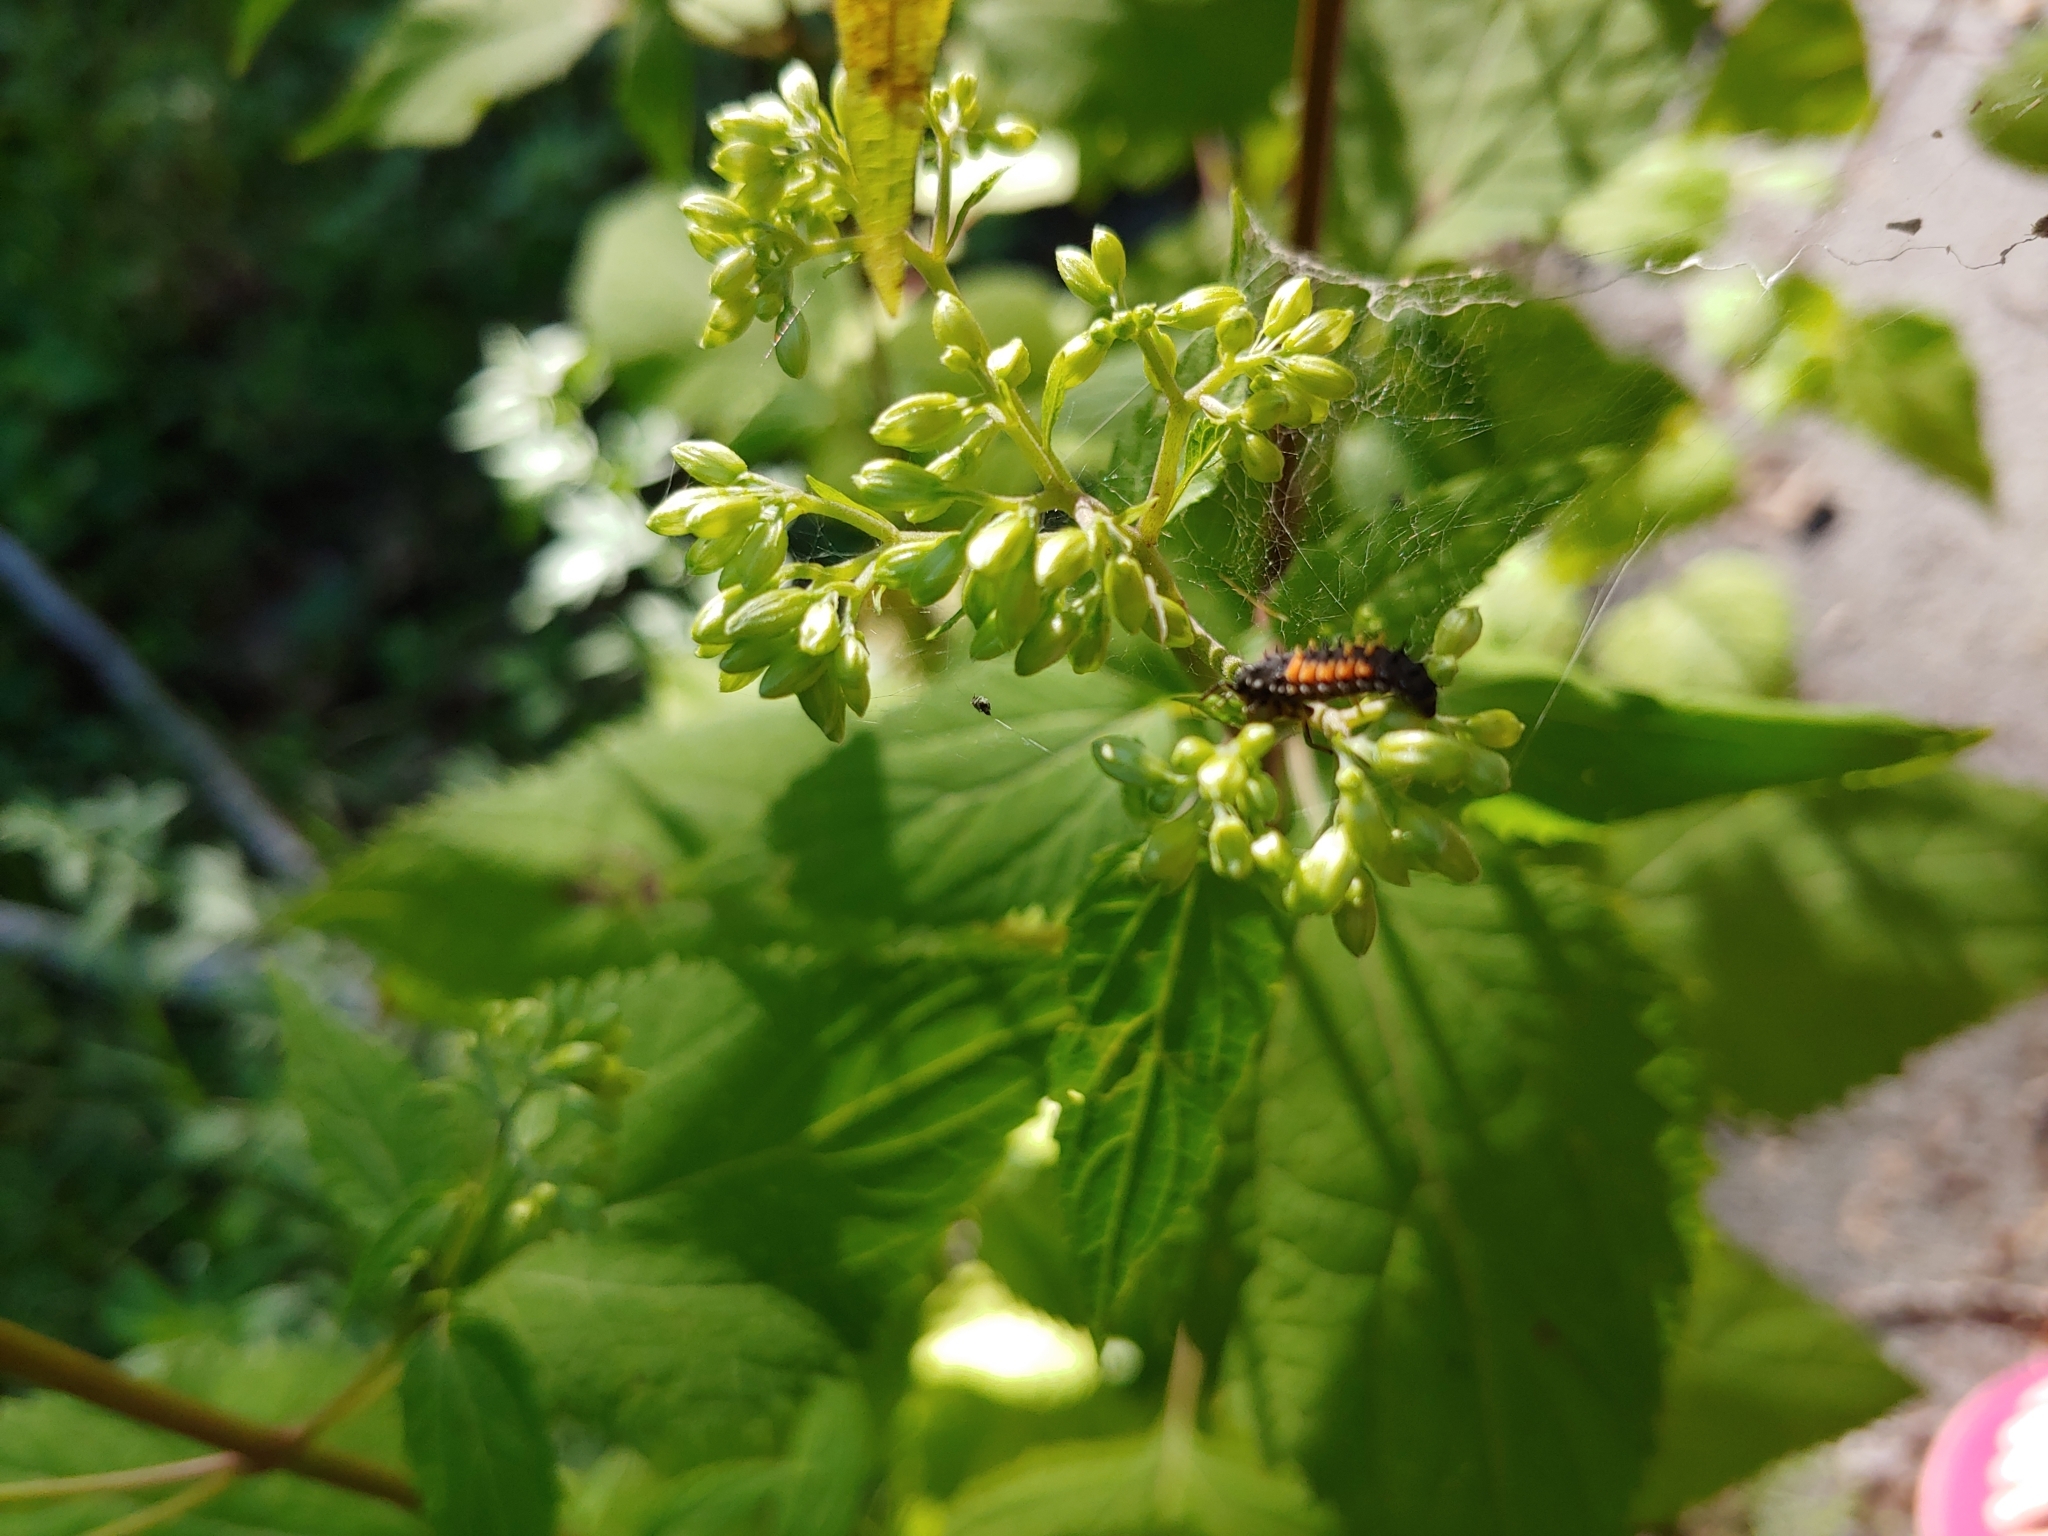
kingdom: Animalia
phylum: Arthropoda
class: Insecta
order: Coleoptera
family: Coccinellidae
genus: Harmonia
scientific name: Harmonia axyridis
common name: Harlequin ladybird
